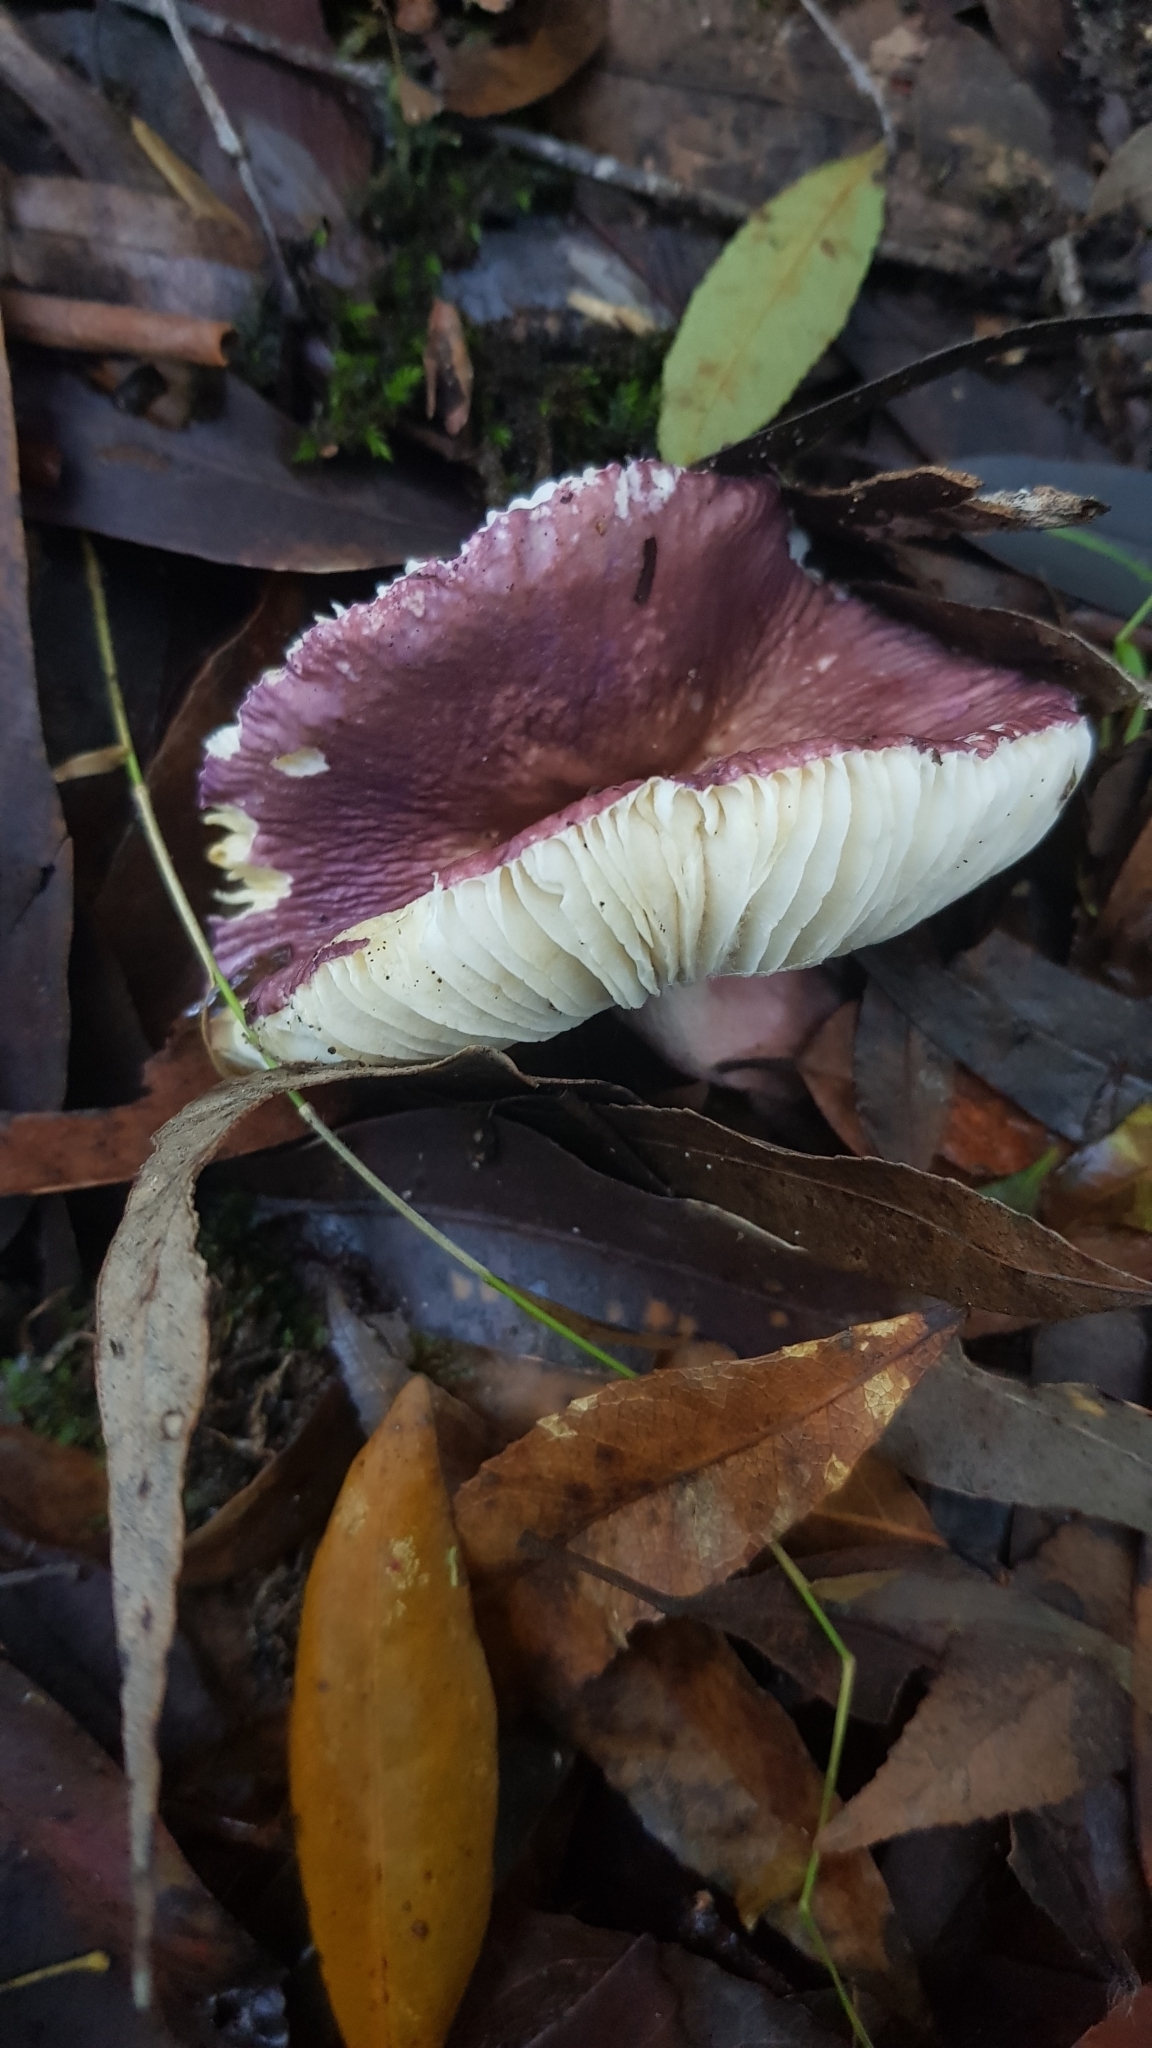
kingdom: Fungi
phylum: Basidiomycota
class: Agaricomycetes
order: Russulales
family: Russulaceae
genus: Russula
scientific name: Russula lenkunya
